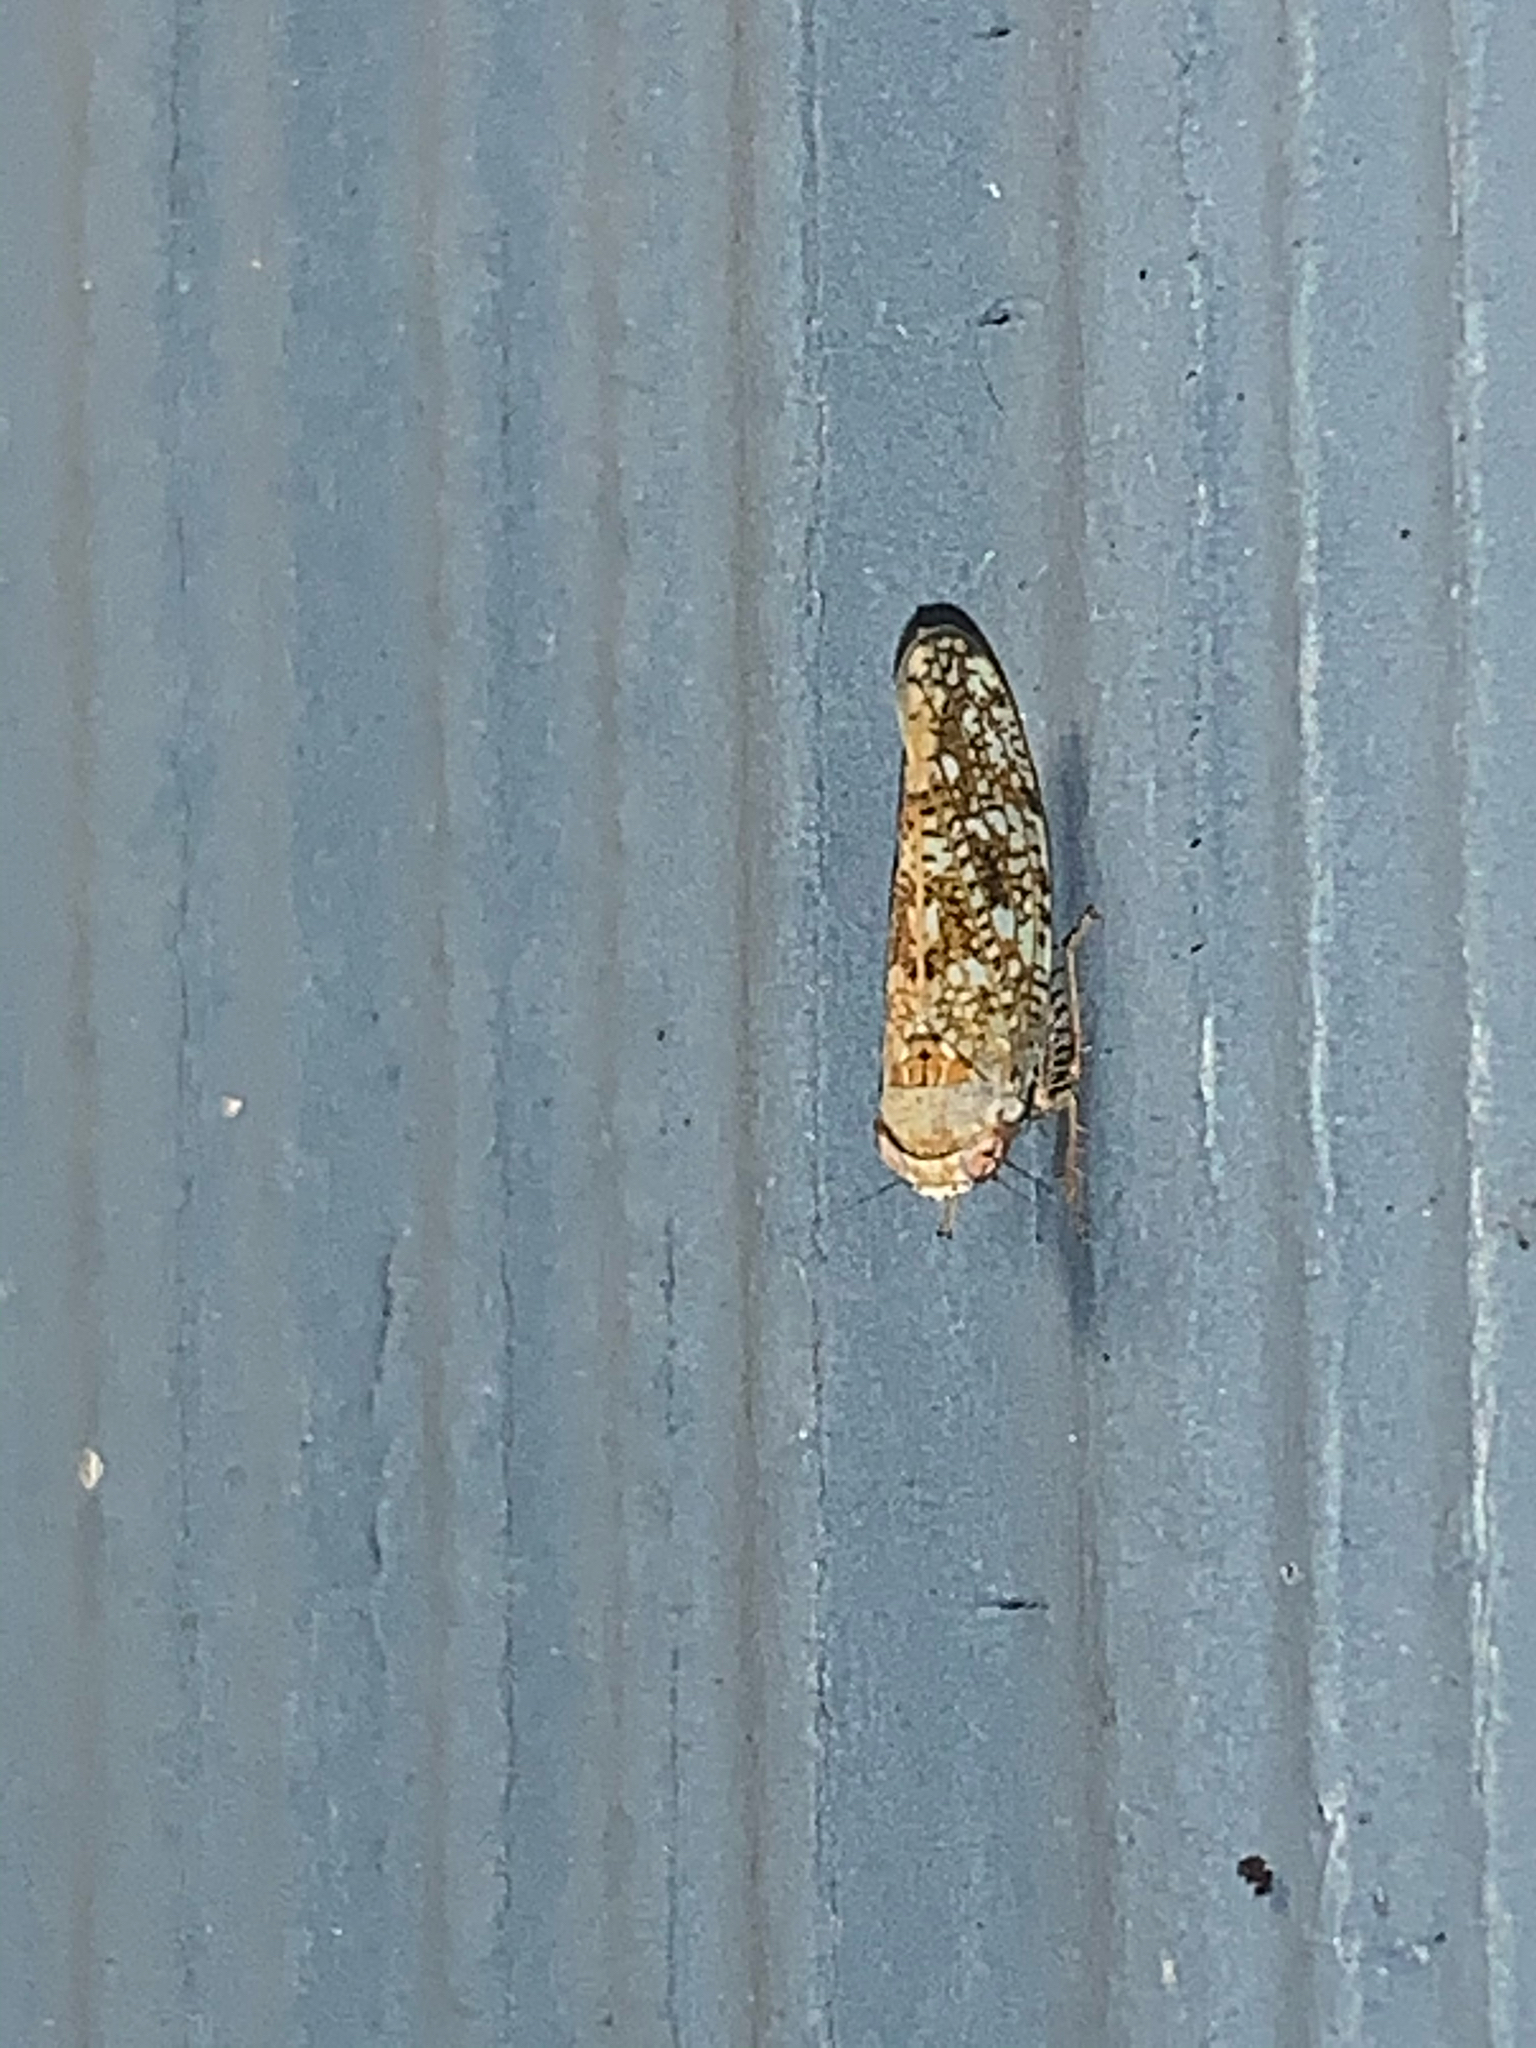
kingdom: Animalia
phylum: Arthropoda
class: Insecta
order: Hemiptera
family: Cicadellidae
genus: Orientus
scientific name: Orientus ishidae
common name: Japanese leafhopper
